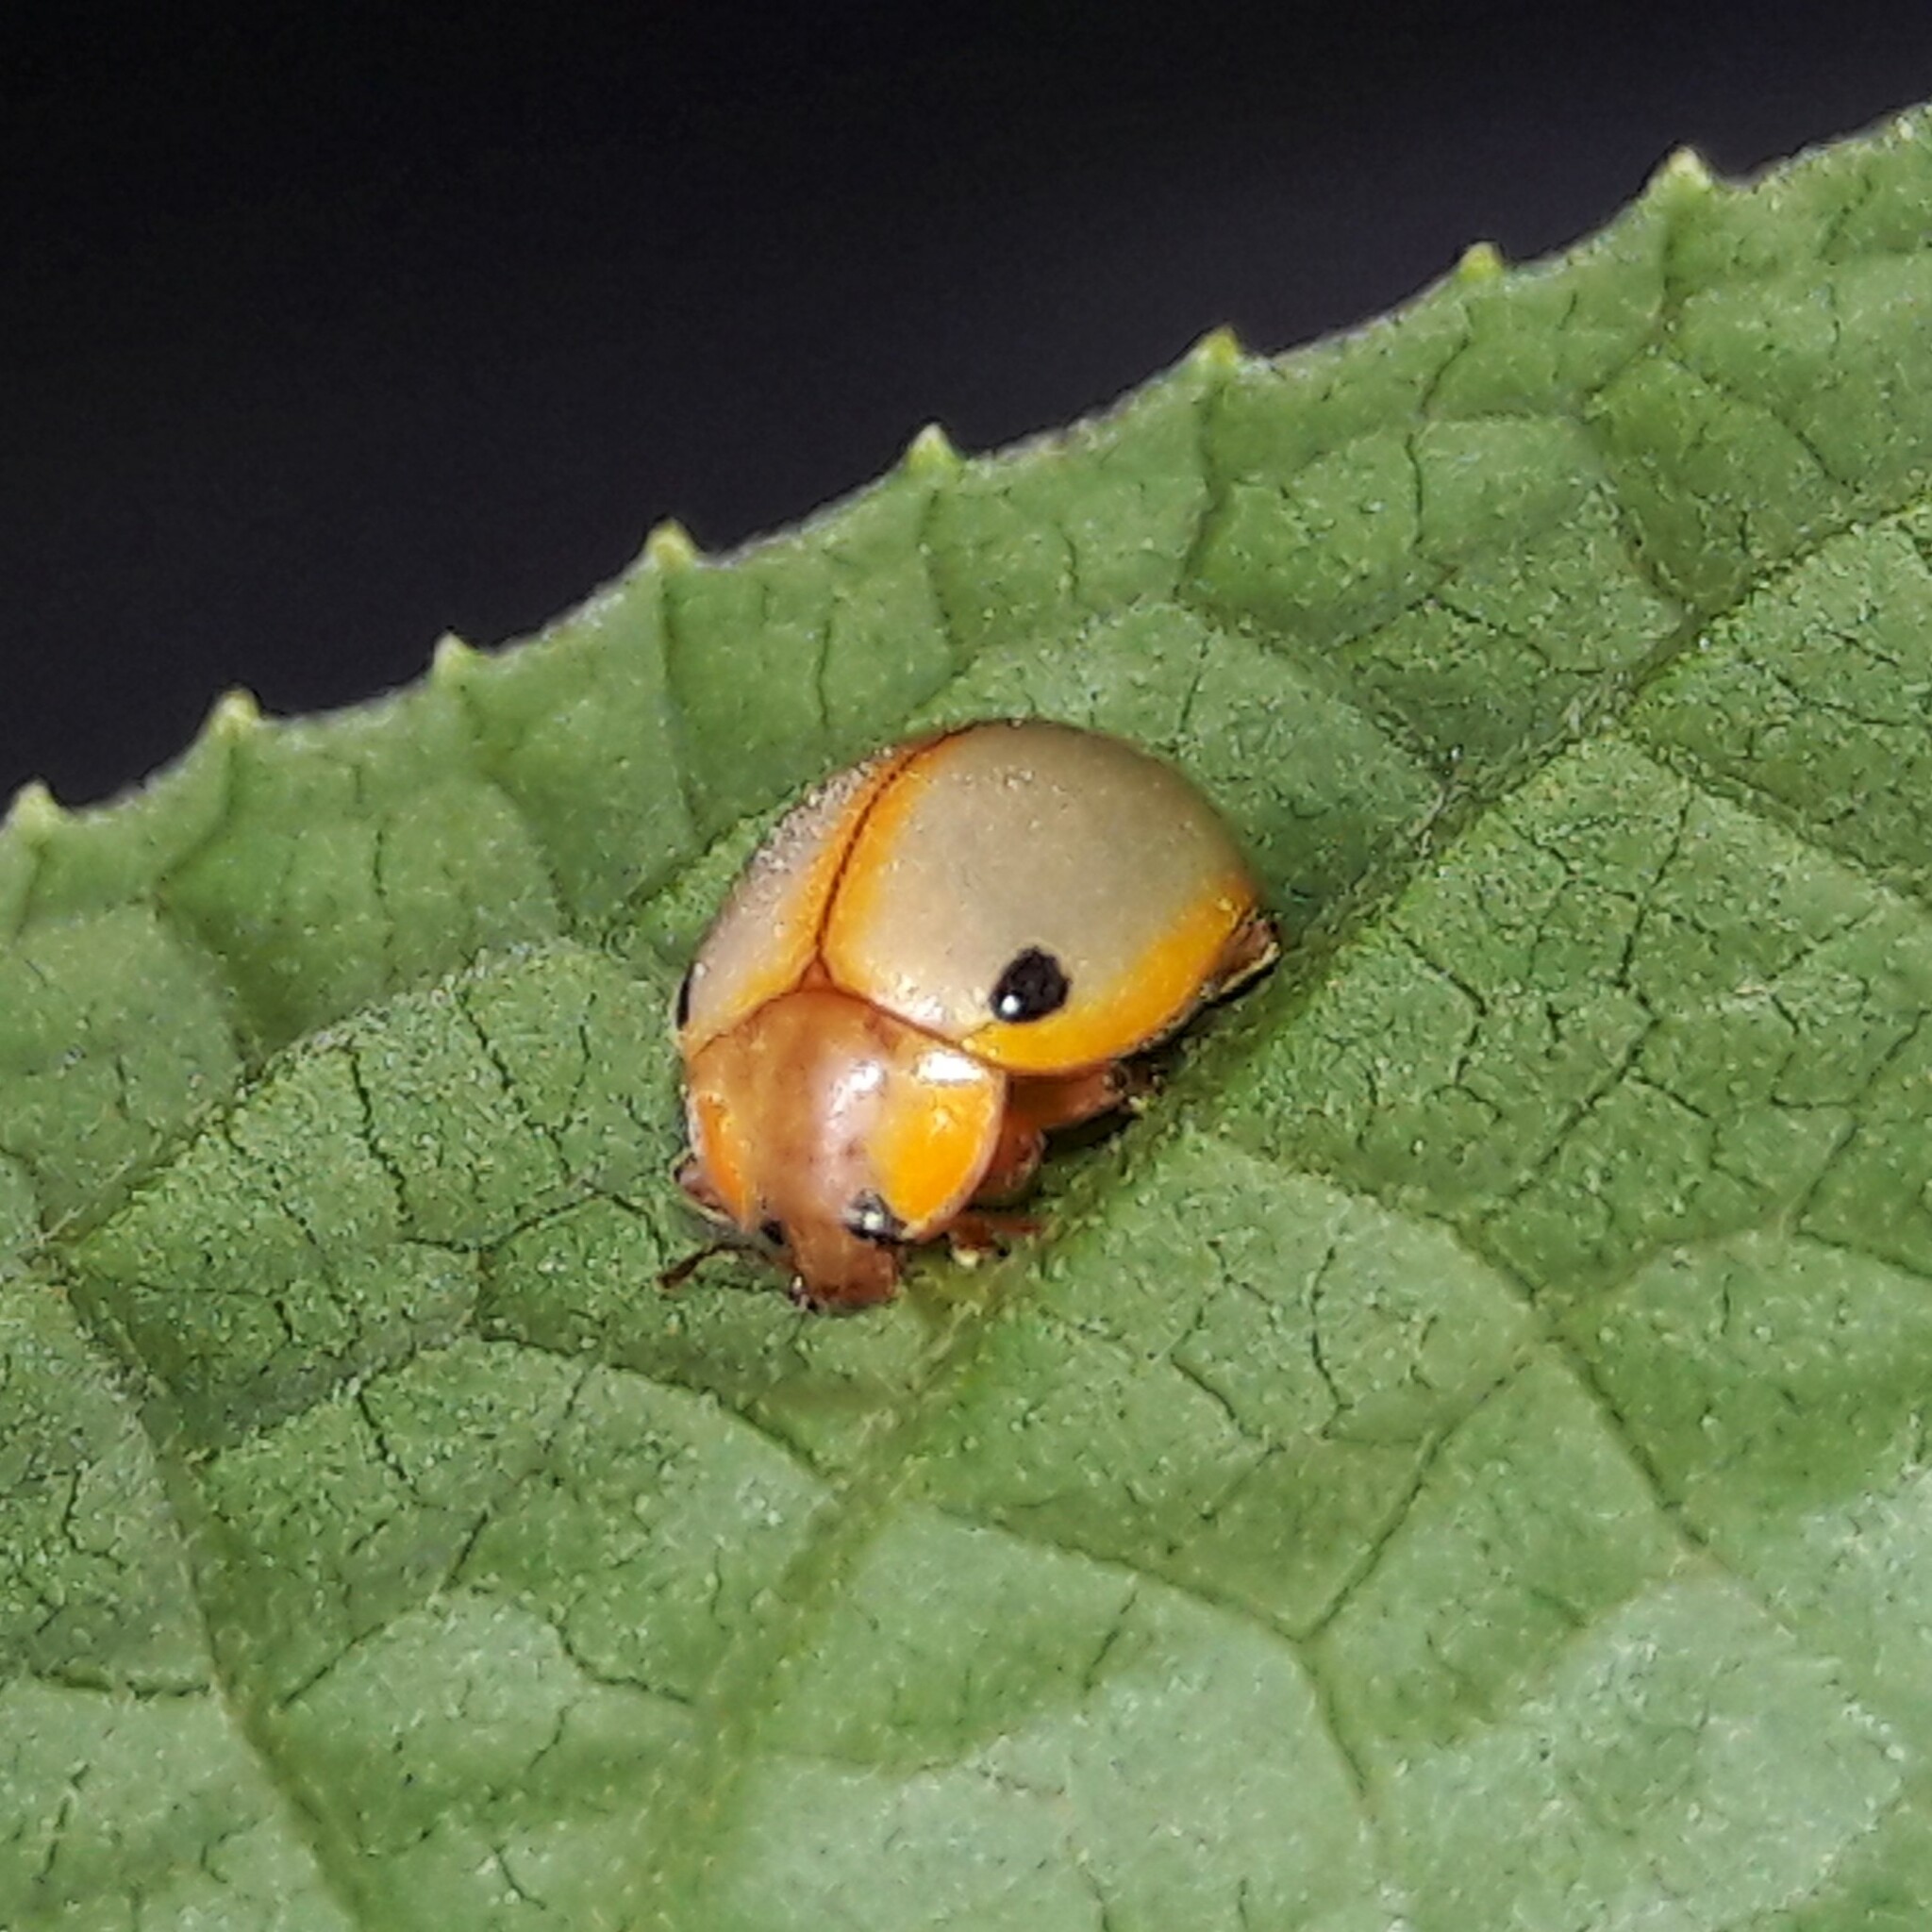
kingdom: Animalia
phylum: Arthropoda
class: Insecta
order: Coleoptera
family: Coccinellidae
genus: Eupalea
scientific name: Eupalea
